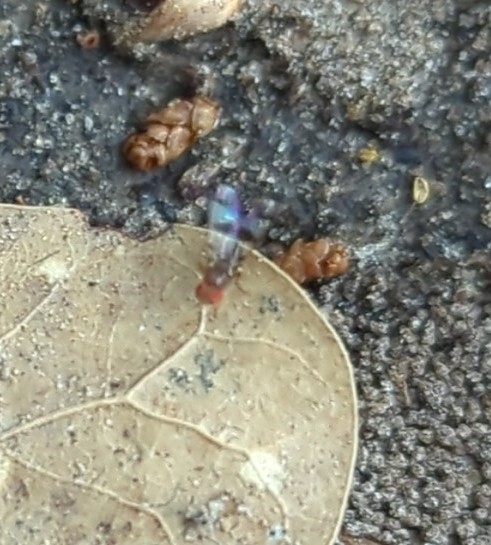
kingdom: Animalia
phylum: Arthropoda
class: Insecta
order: Diptera
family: Drosophilidae
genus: Chymomyza
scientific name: Chymomyza amoena
